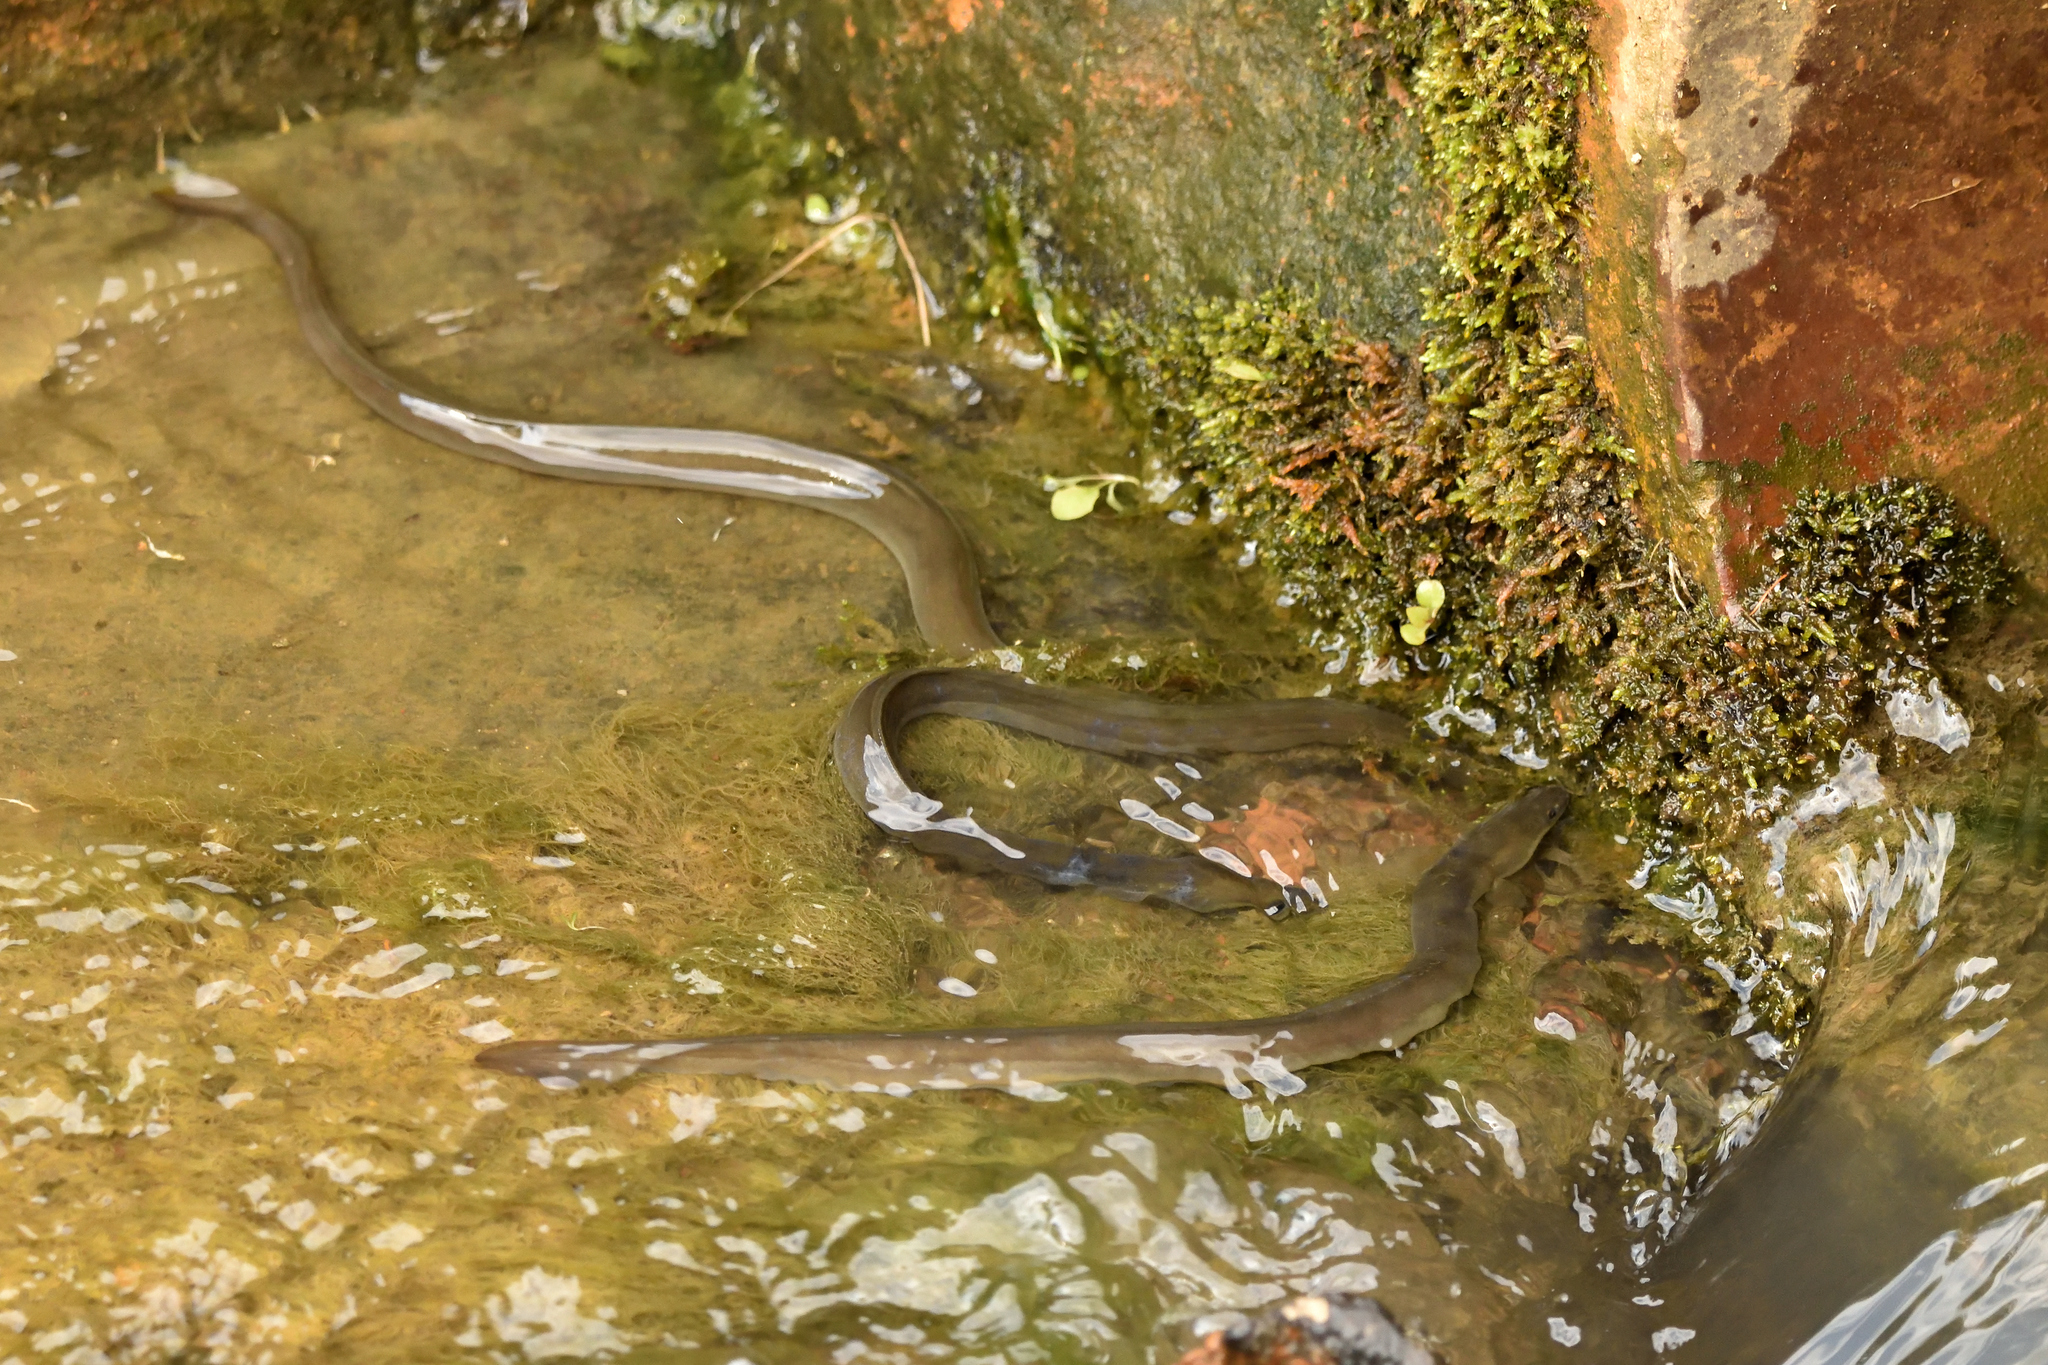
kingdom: Animalia
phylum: Chordata
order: Anguilliformes
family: Anguillidae
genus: Anguilla
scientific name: Anguilla anguilla
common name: European eel
